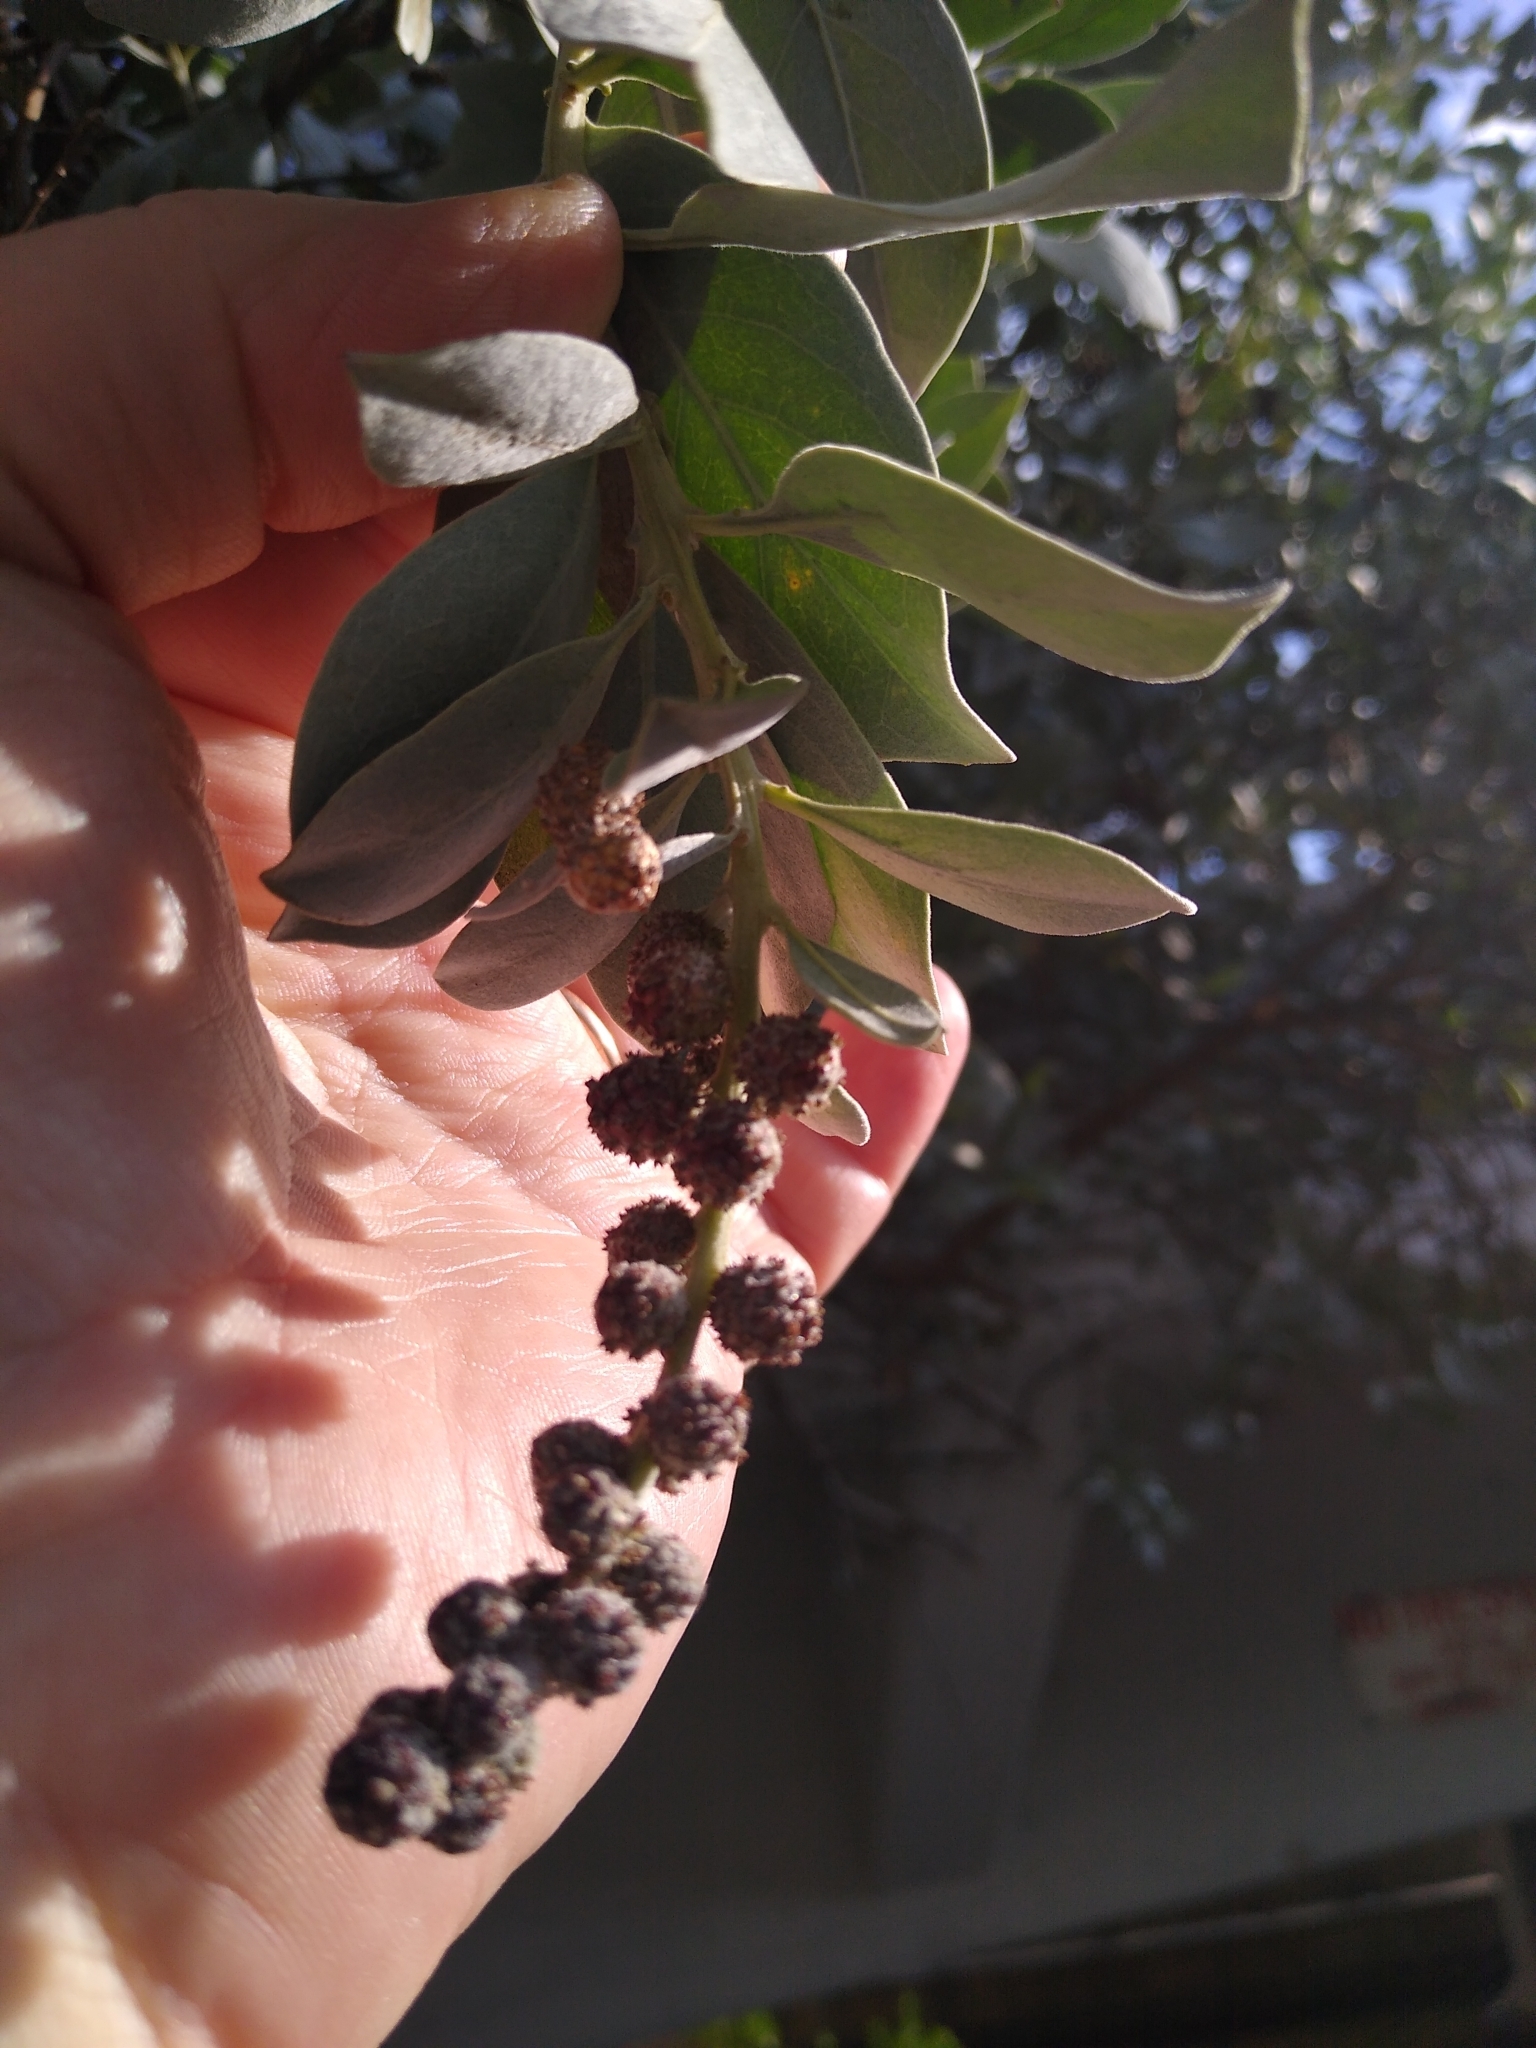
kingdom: Plantae
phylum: Tracheophyta
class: Magnoliopsida
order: Myrtales
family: Combretaceae
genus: Conocarpus
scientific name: Conocarpus erectus
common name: Button mangrove
